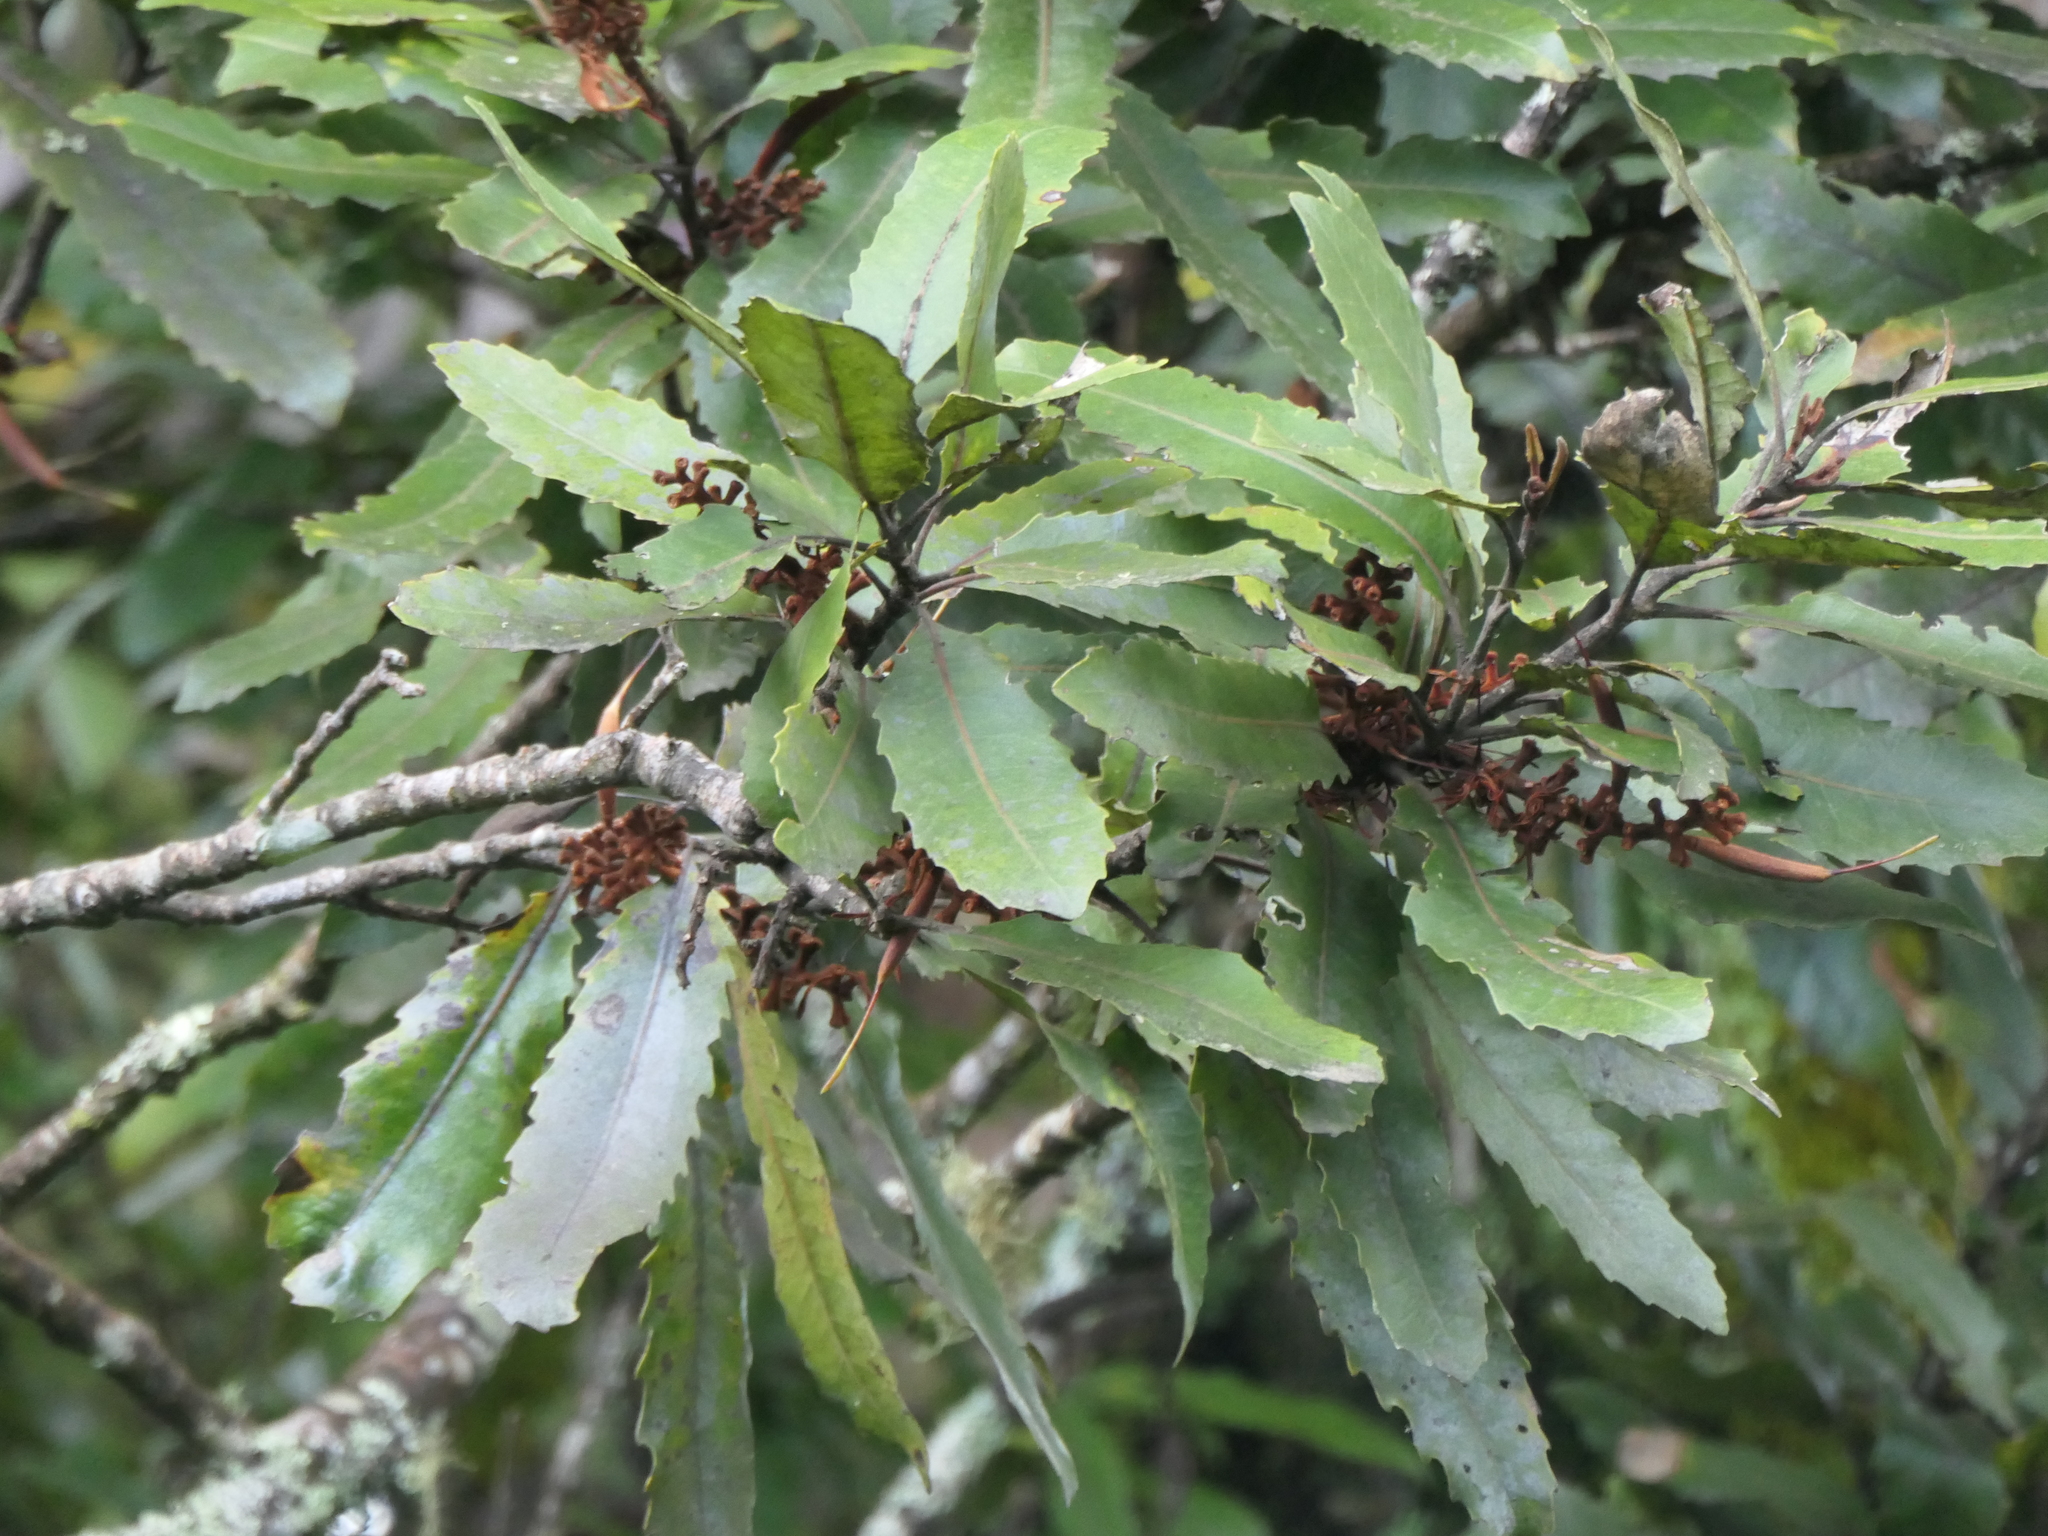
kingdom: Plantae
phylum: Tracheophyta
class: Magnoliopsida
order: Proteales
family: Proteaceae
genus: Knightia
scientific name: Knightia excelsa
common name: New zealand-honeysuckle
